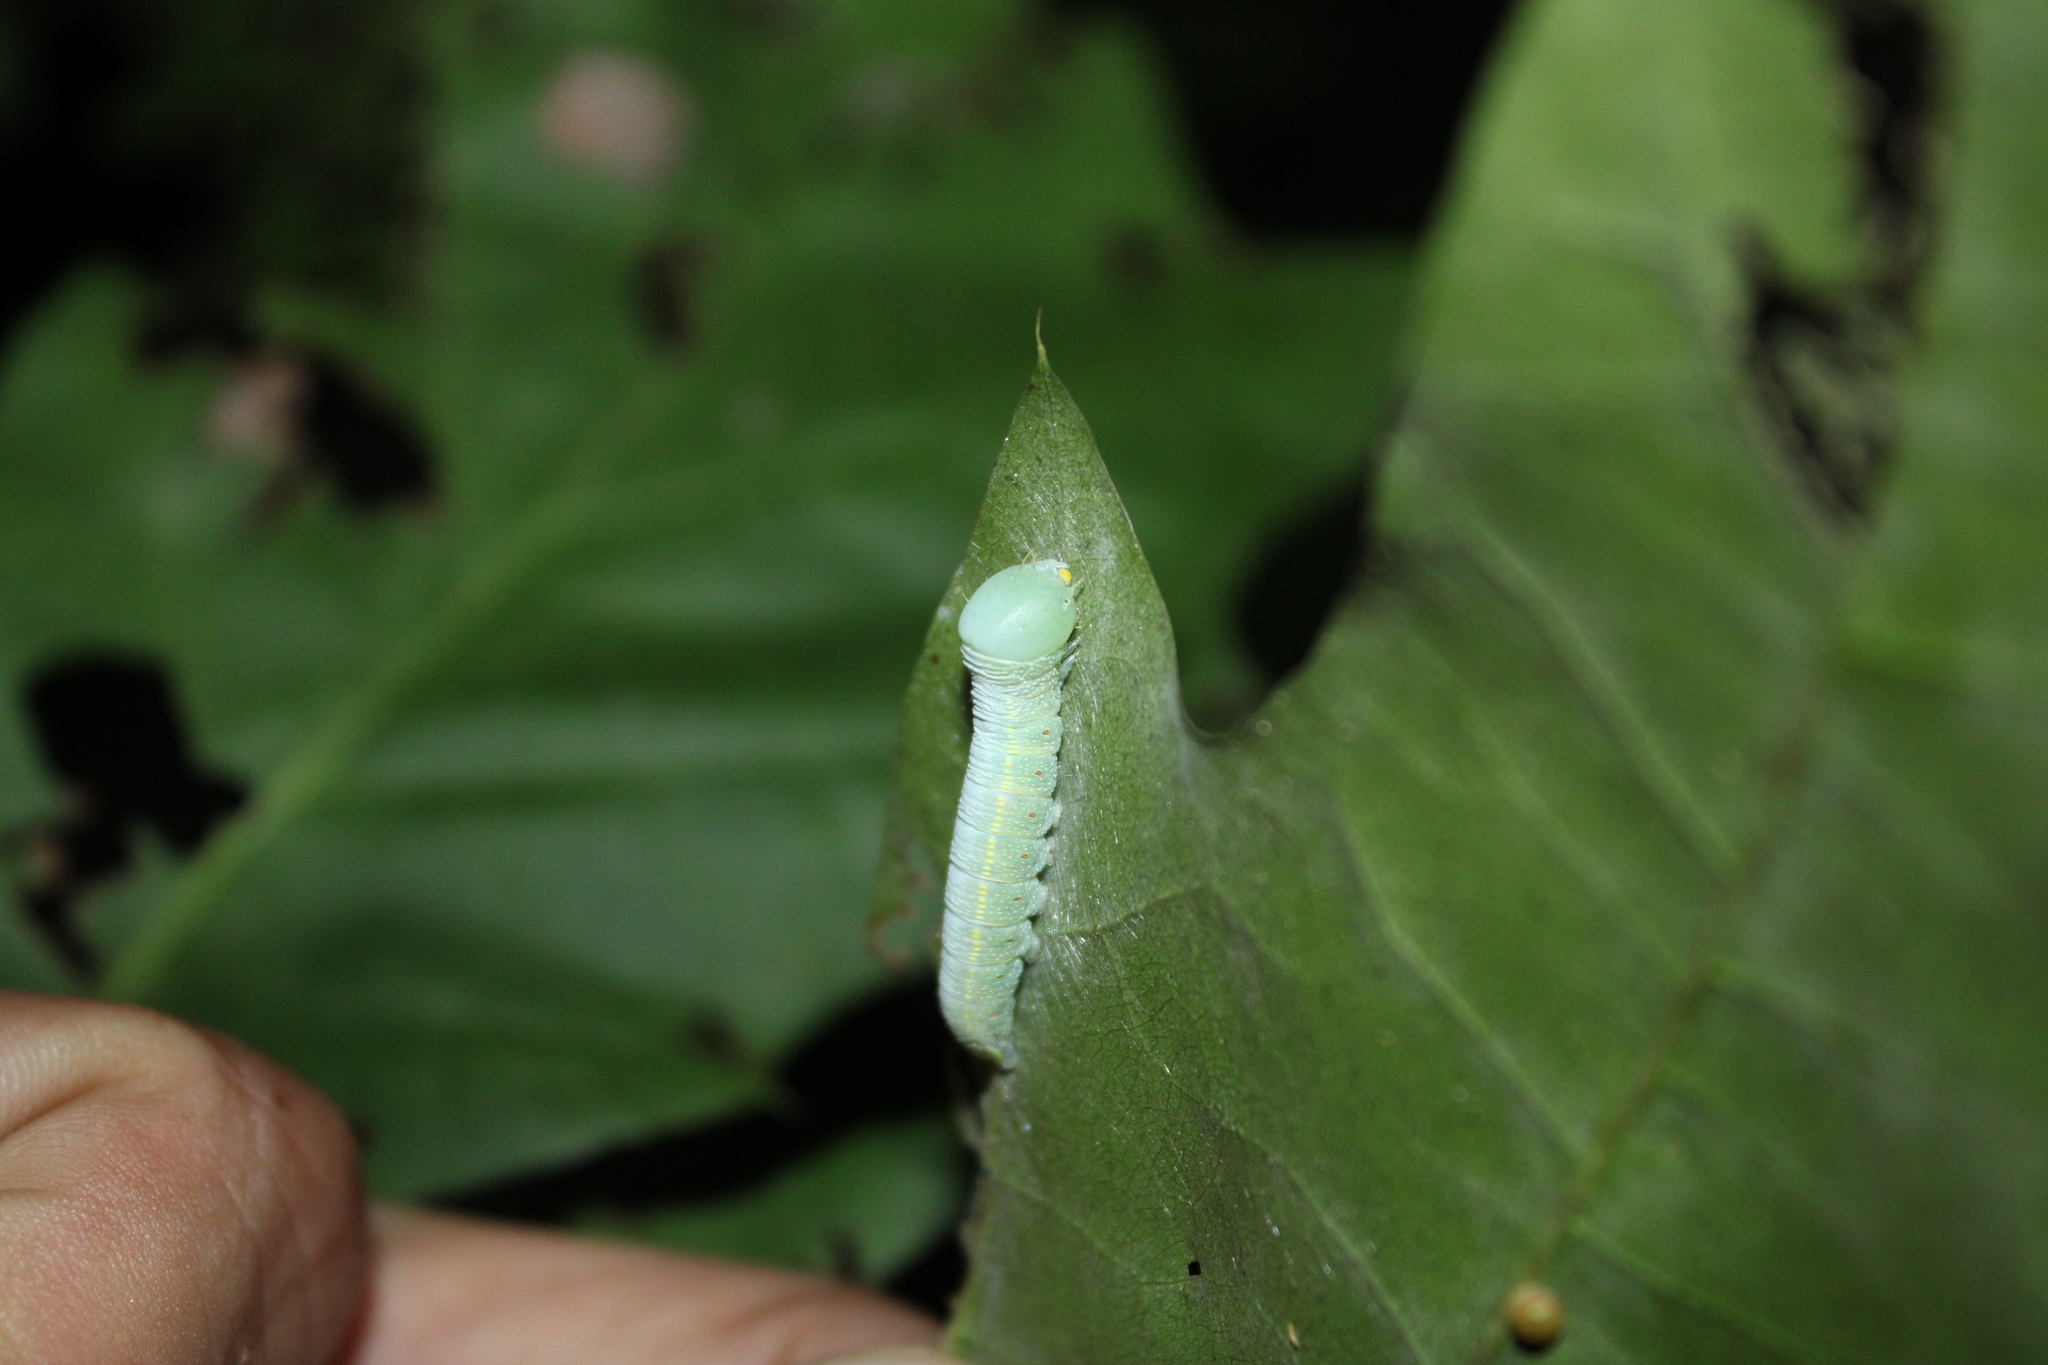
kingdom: Animalia
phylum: Arthropoda
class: Insecta
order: Lepidoptera
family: Notodontidae
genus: Nadata
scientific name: Nadata gibbosa
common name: White-dotted prominent
